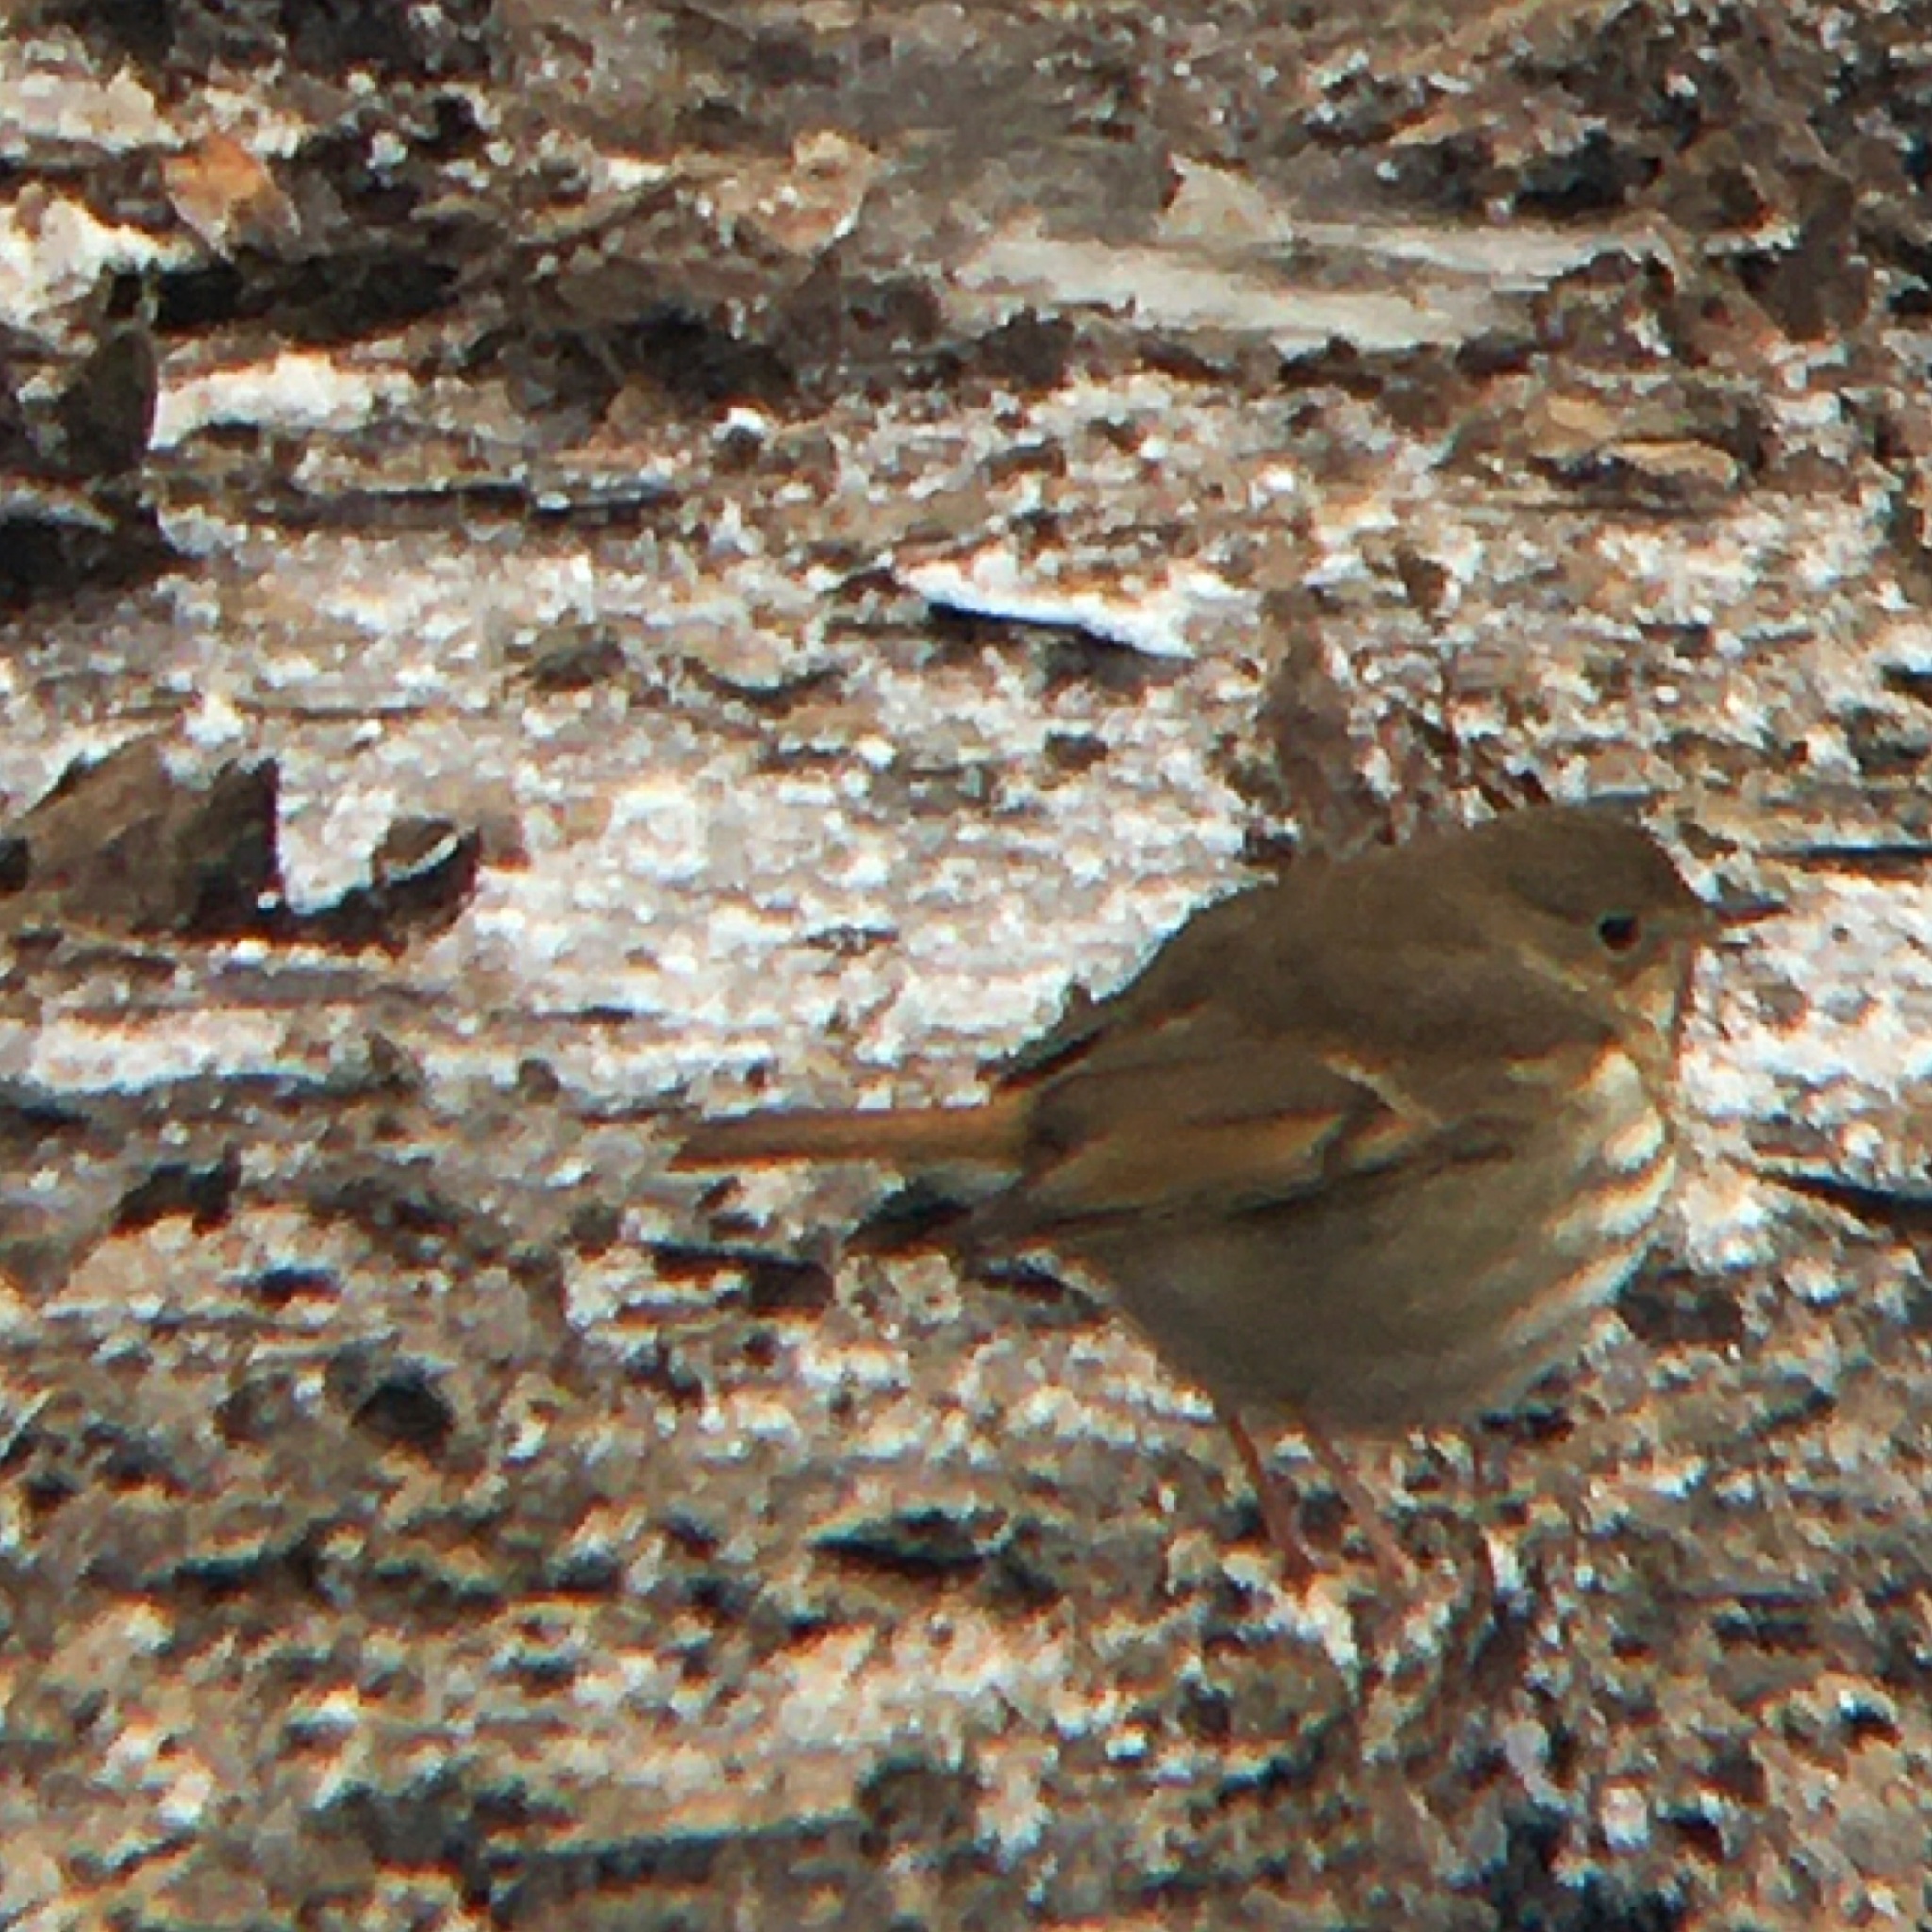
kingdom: Animalia
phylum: Chordata
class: Aves
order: Passeriformes
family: Turdidae
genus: Catharus
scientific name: Catharus guttatus
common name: Hermit thrush
